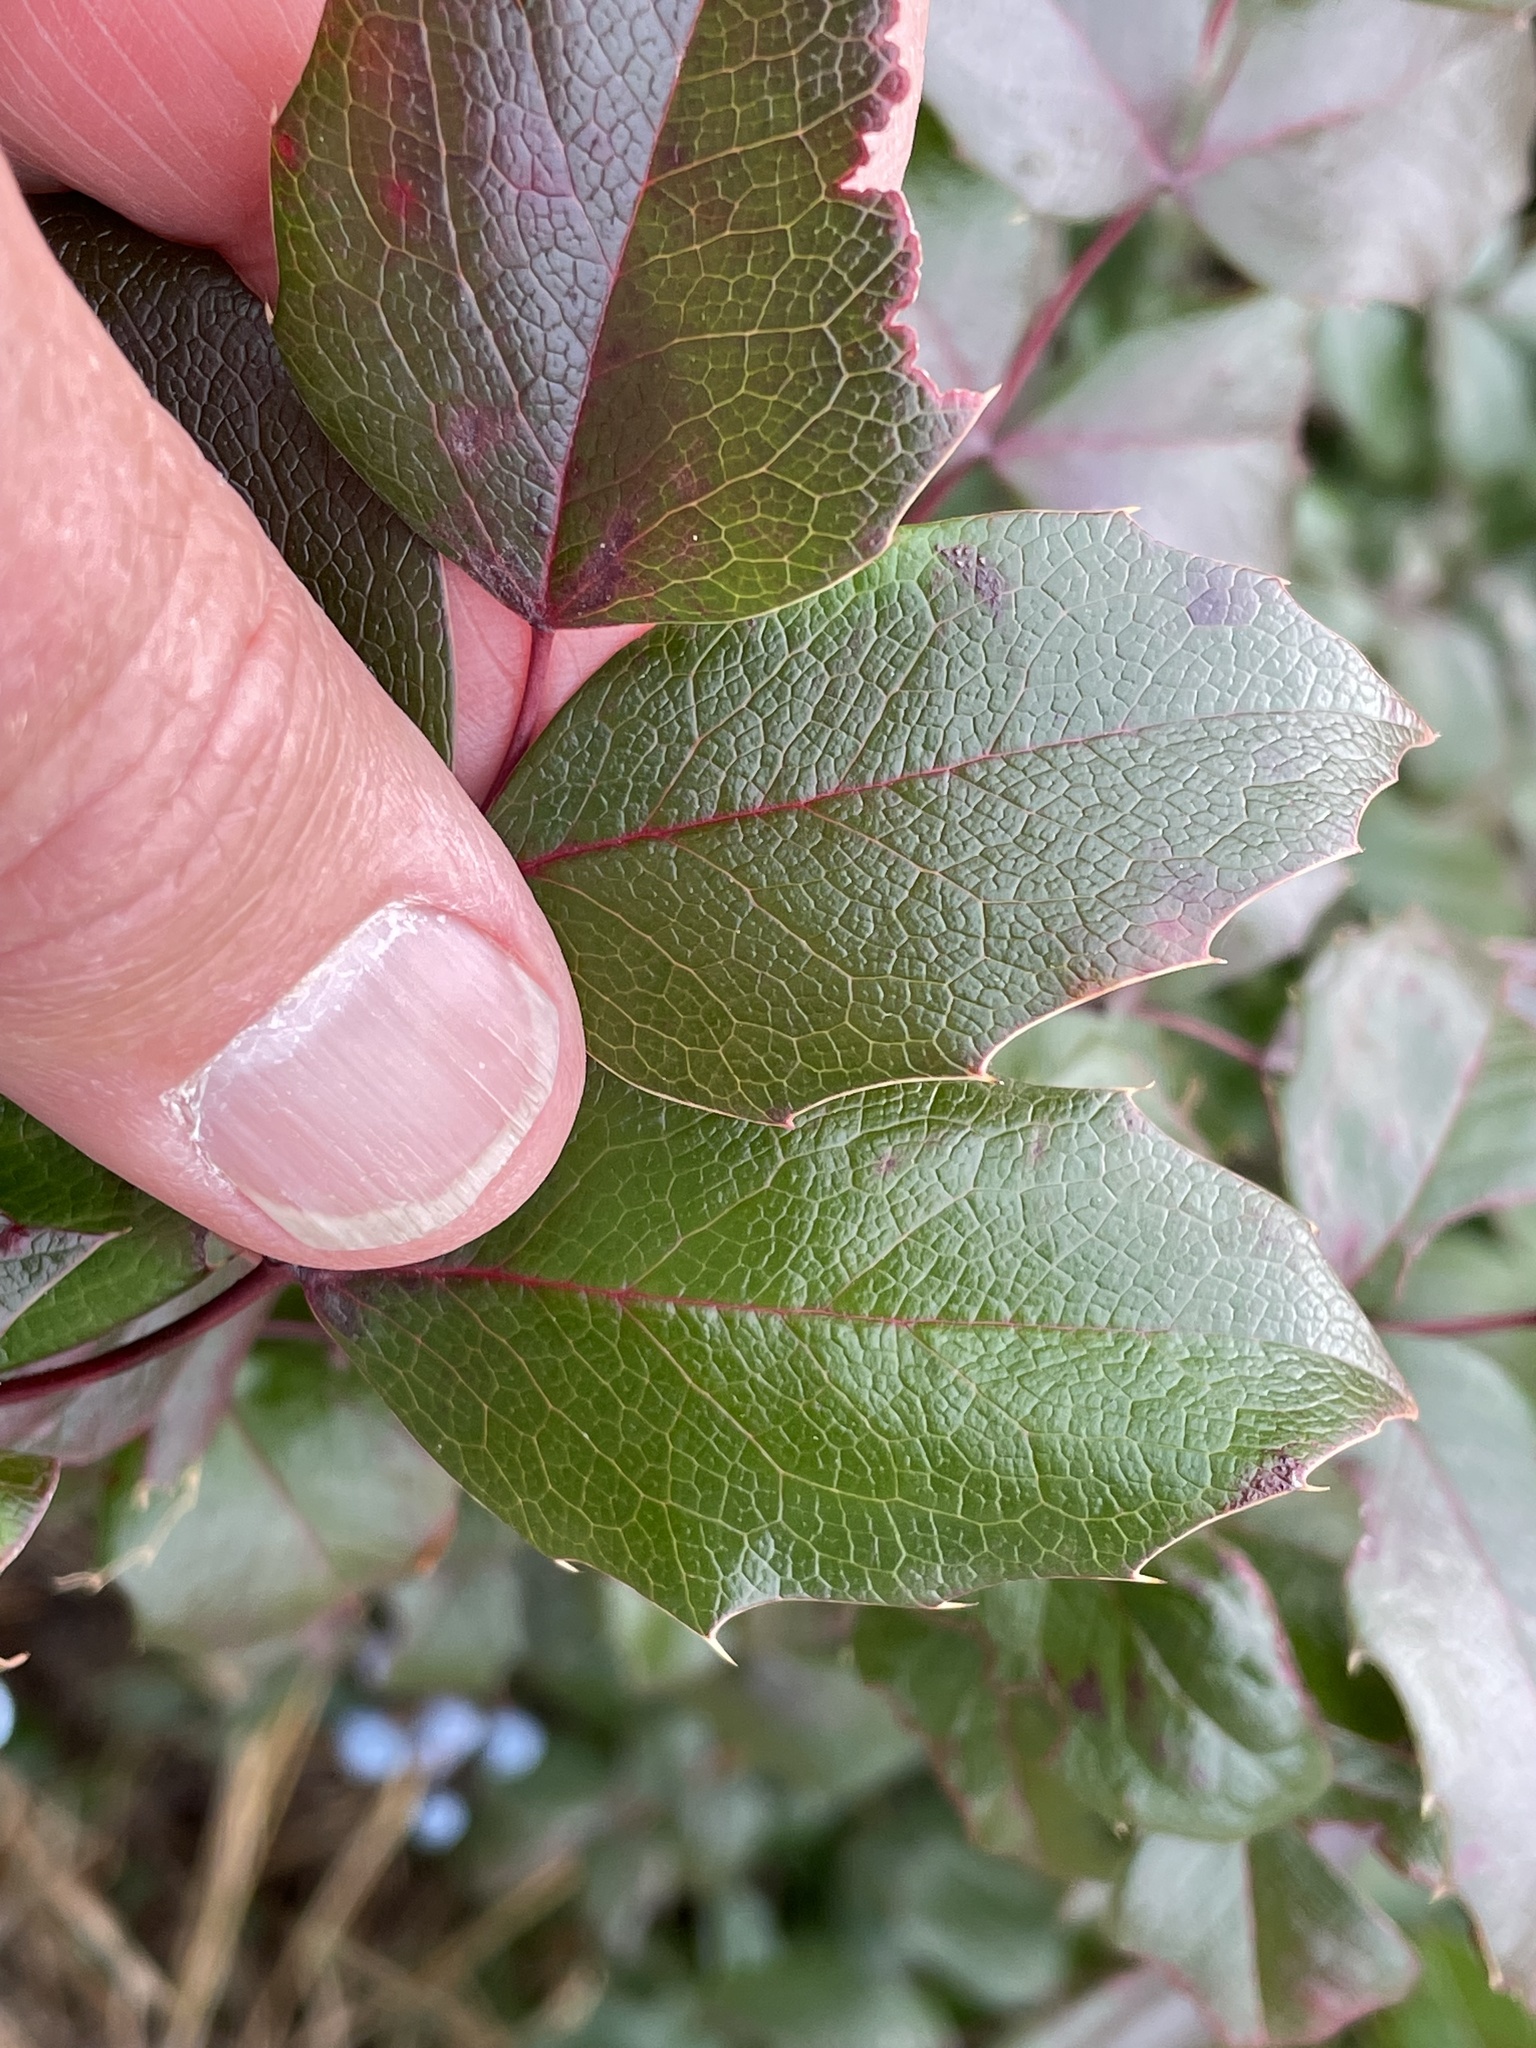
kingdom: Plantae
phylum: Tracheophyta
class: Magnoliopsida
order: Ranunculales
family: Berberidaceae
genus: Mahonia
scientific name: Mahonia aquifolium
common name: Oregon-grape
